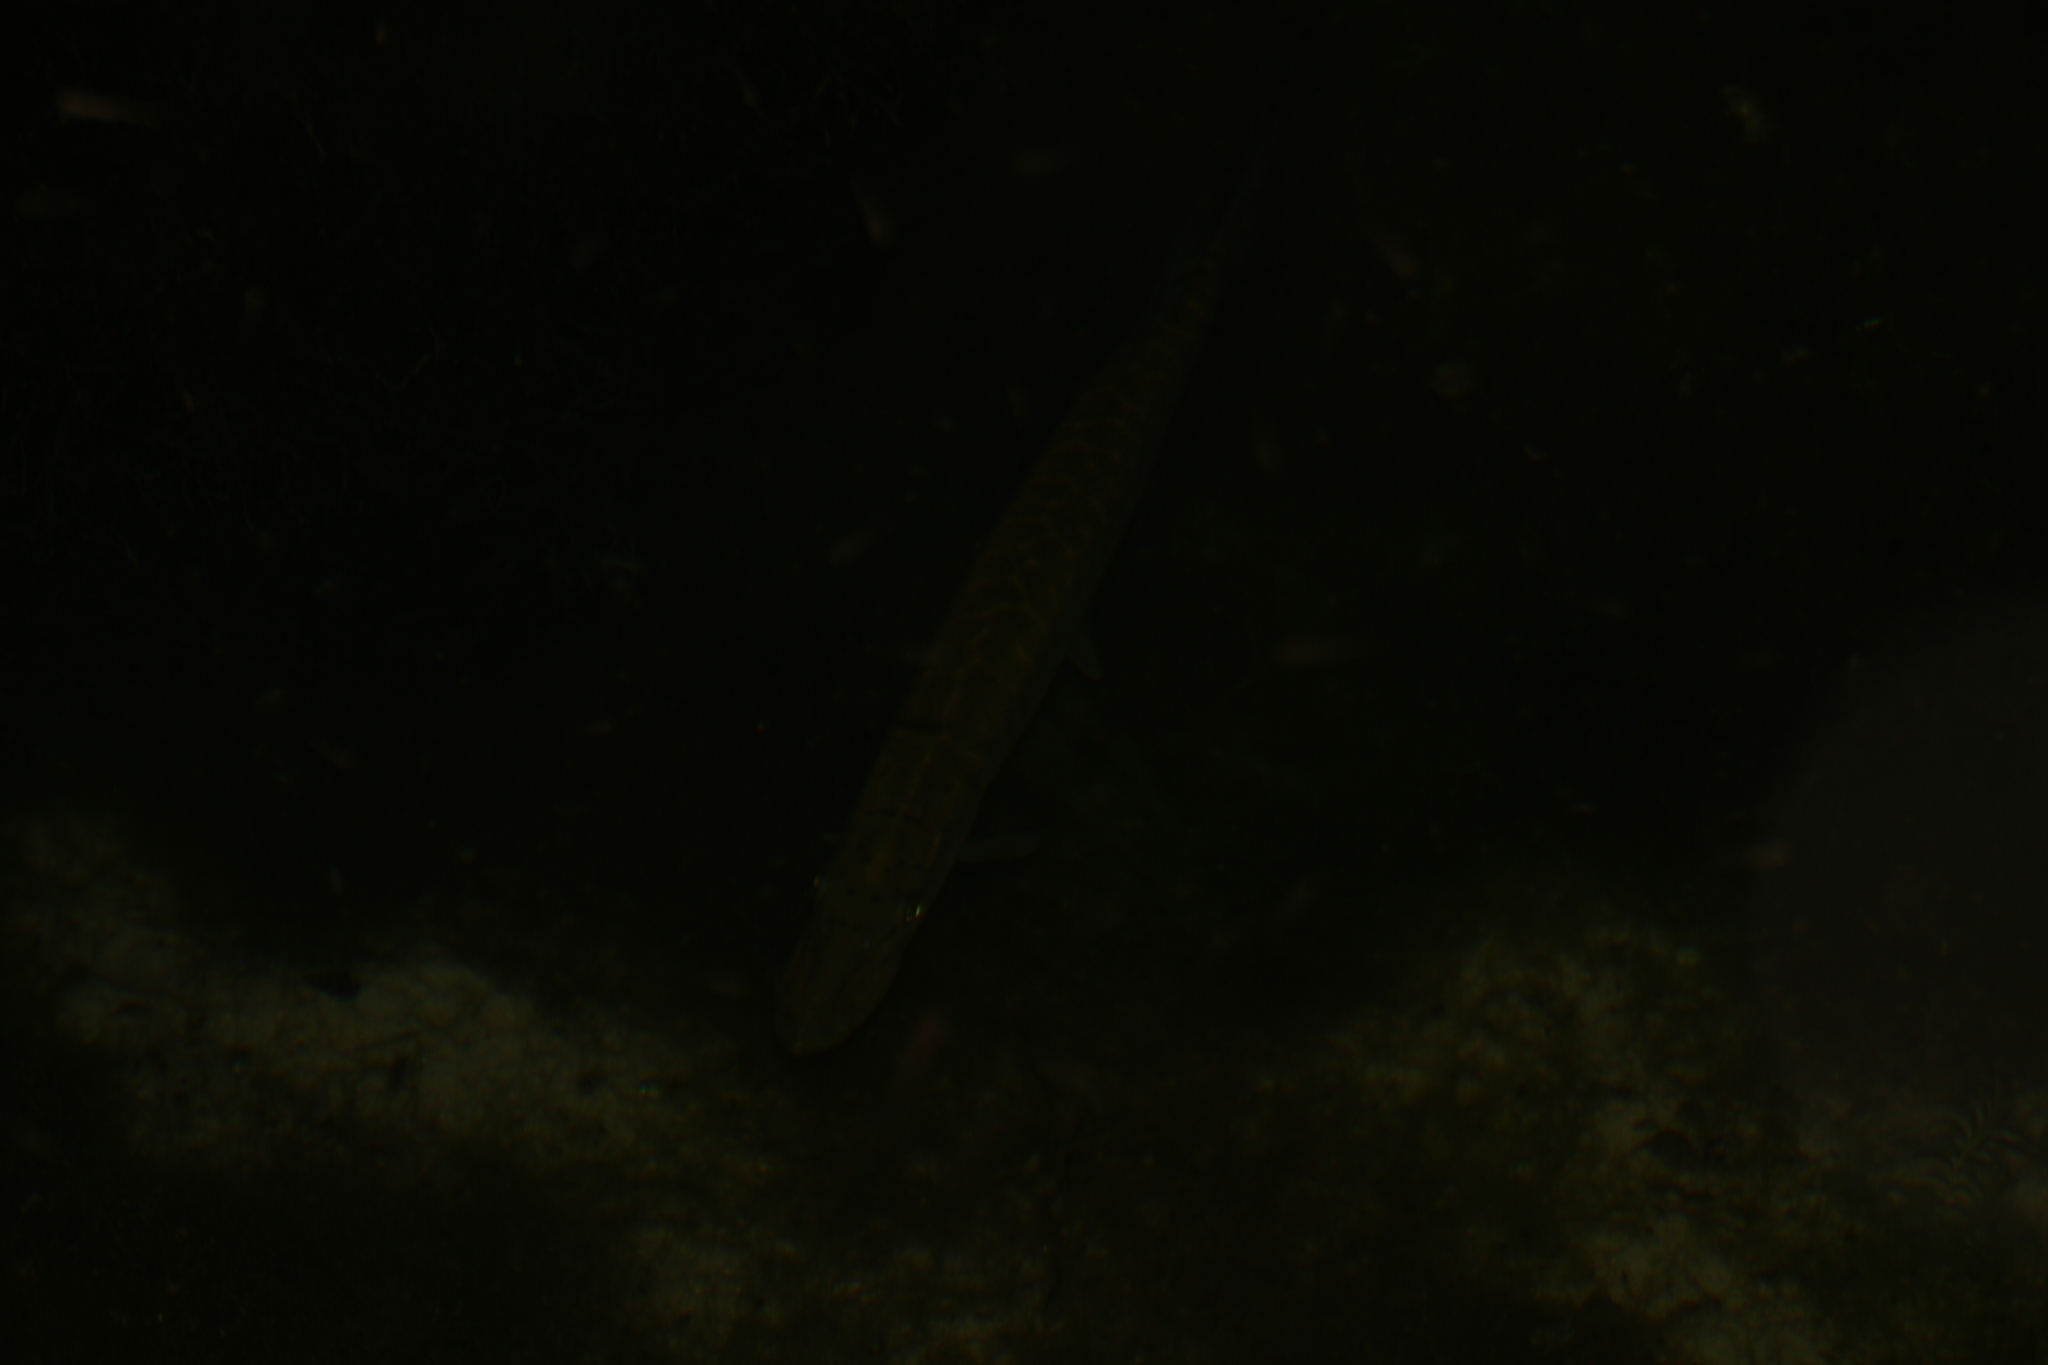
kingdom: Animalia
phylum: Chordata
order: Esociformes
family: Esocidae
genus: Esox
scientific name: Esox lucius
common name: Northern pike
